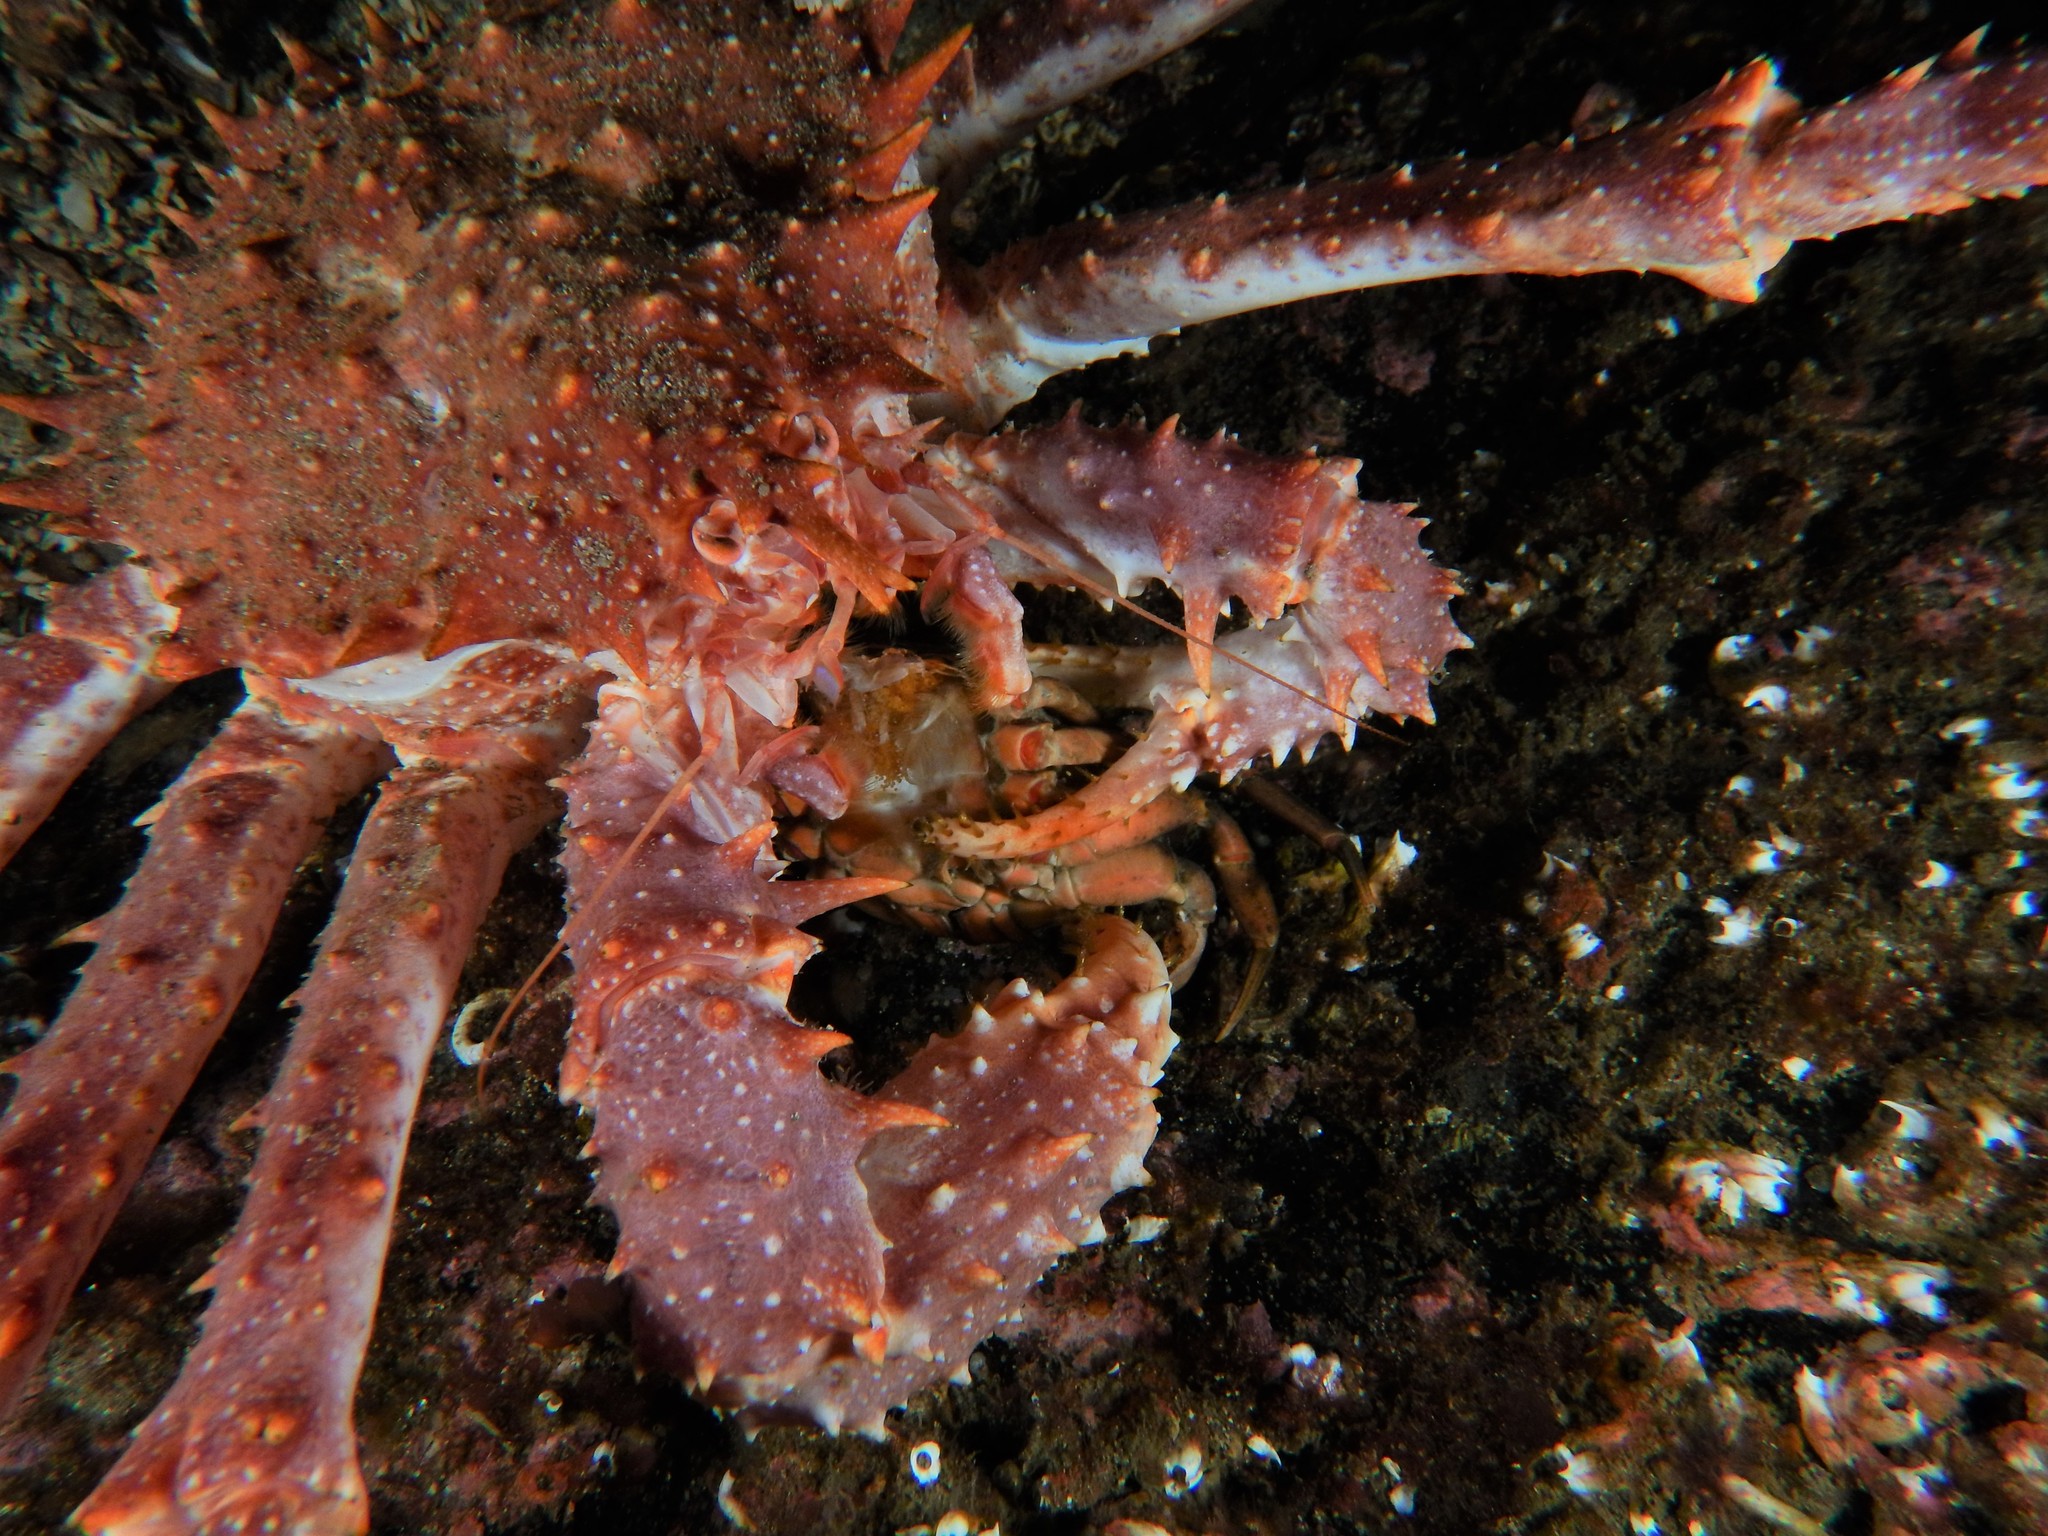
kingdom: Animalia
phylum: Arthropoda
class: Malacostraca
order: Decapoda
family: Lithodidae
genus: Lithodes
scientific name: Lithodes maja
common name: Northern stone crab
